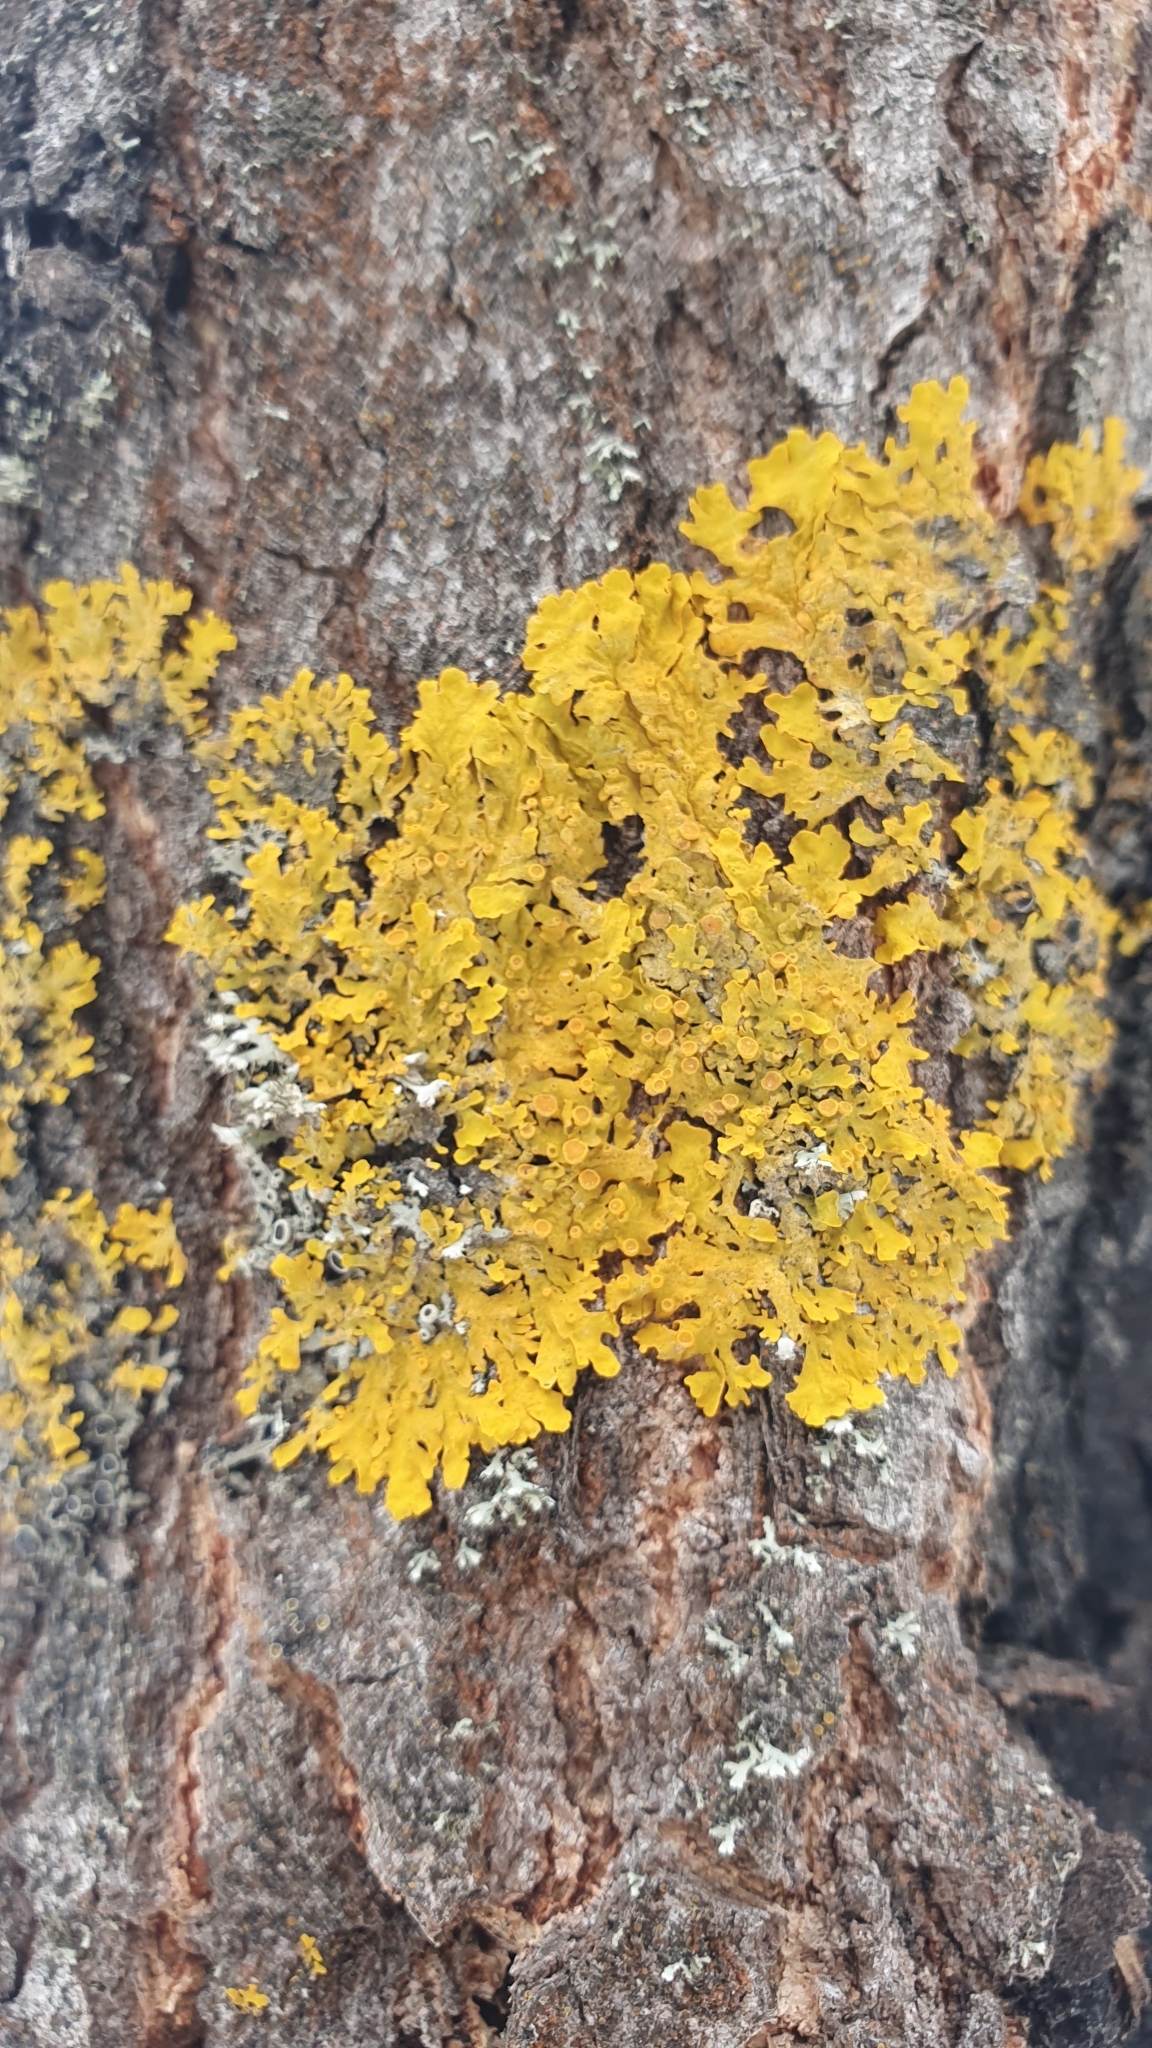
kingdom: Fungi
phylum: Ascomycota
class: Lecanoromycetes
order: Teloschistales
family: Teloschistaceae
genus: Xanthoria
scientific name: Xanthoria parietina
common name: Common orange lichen
